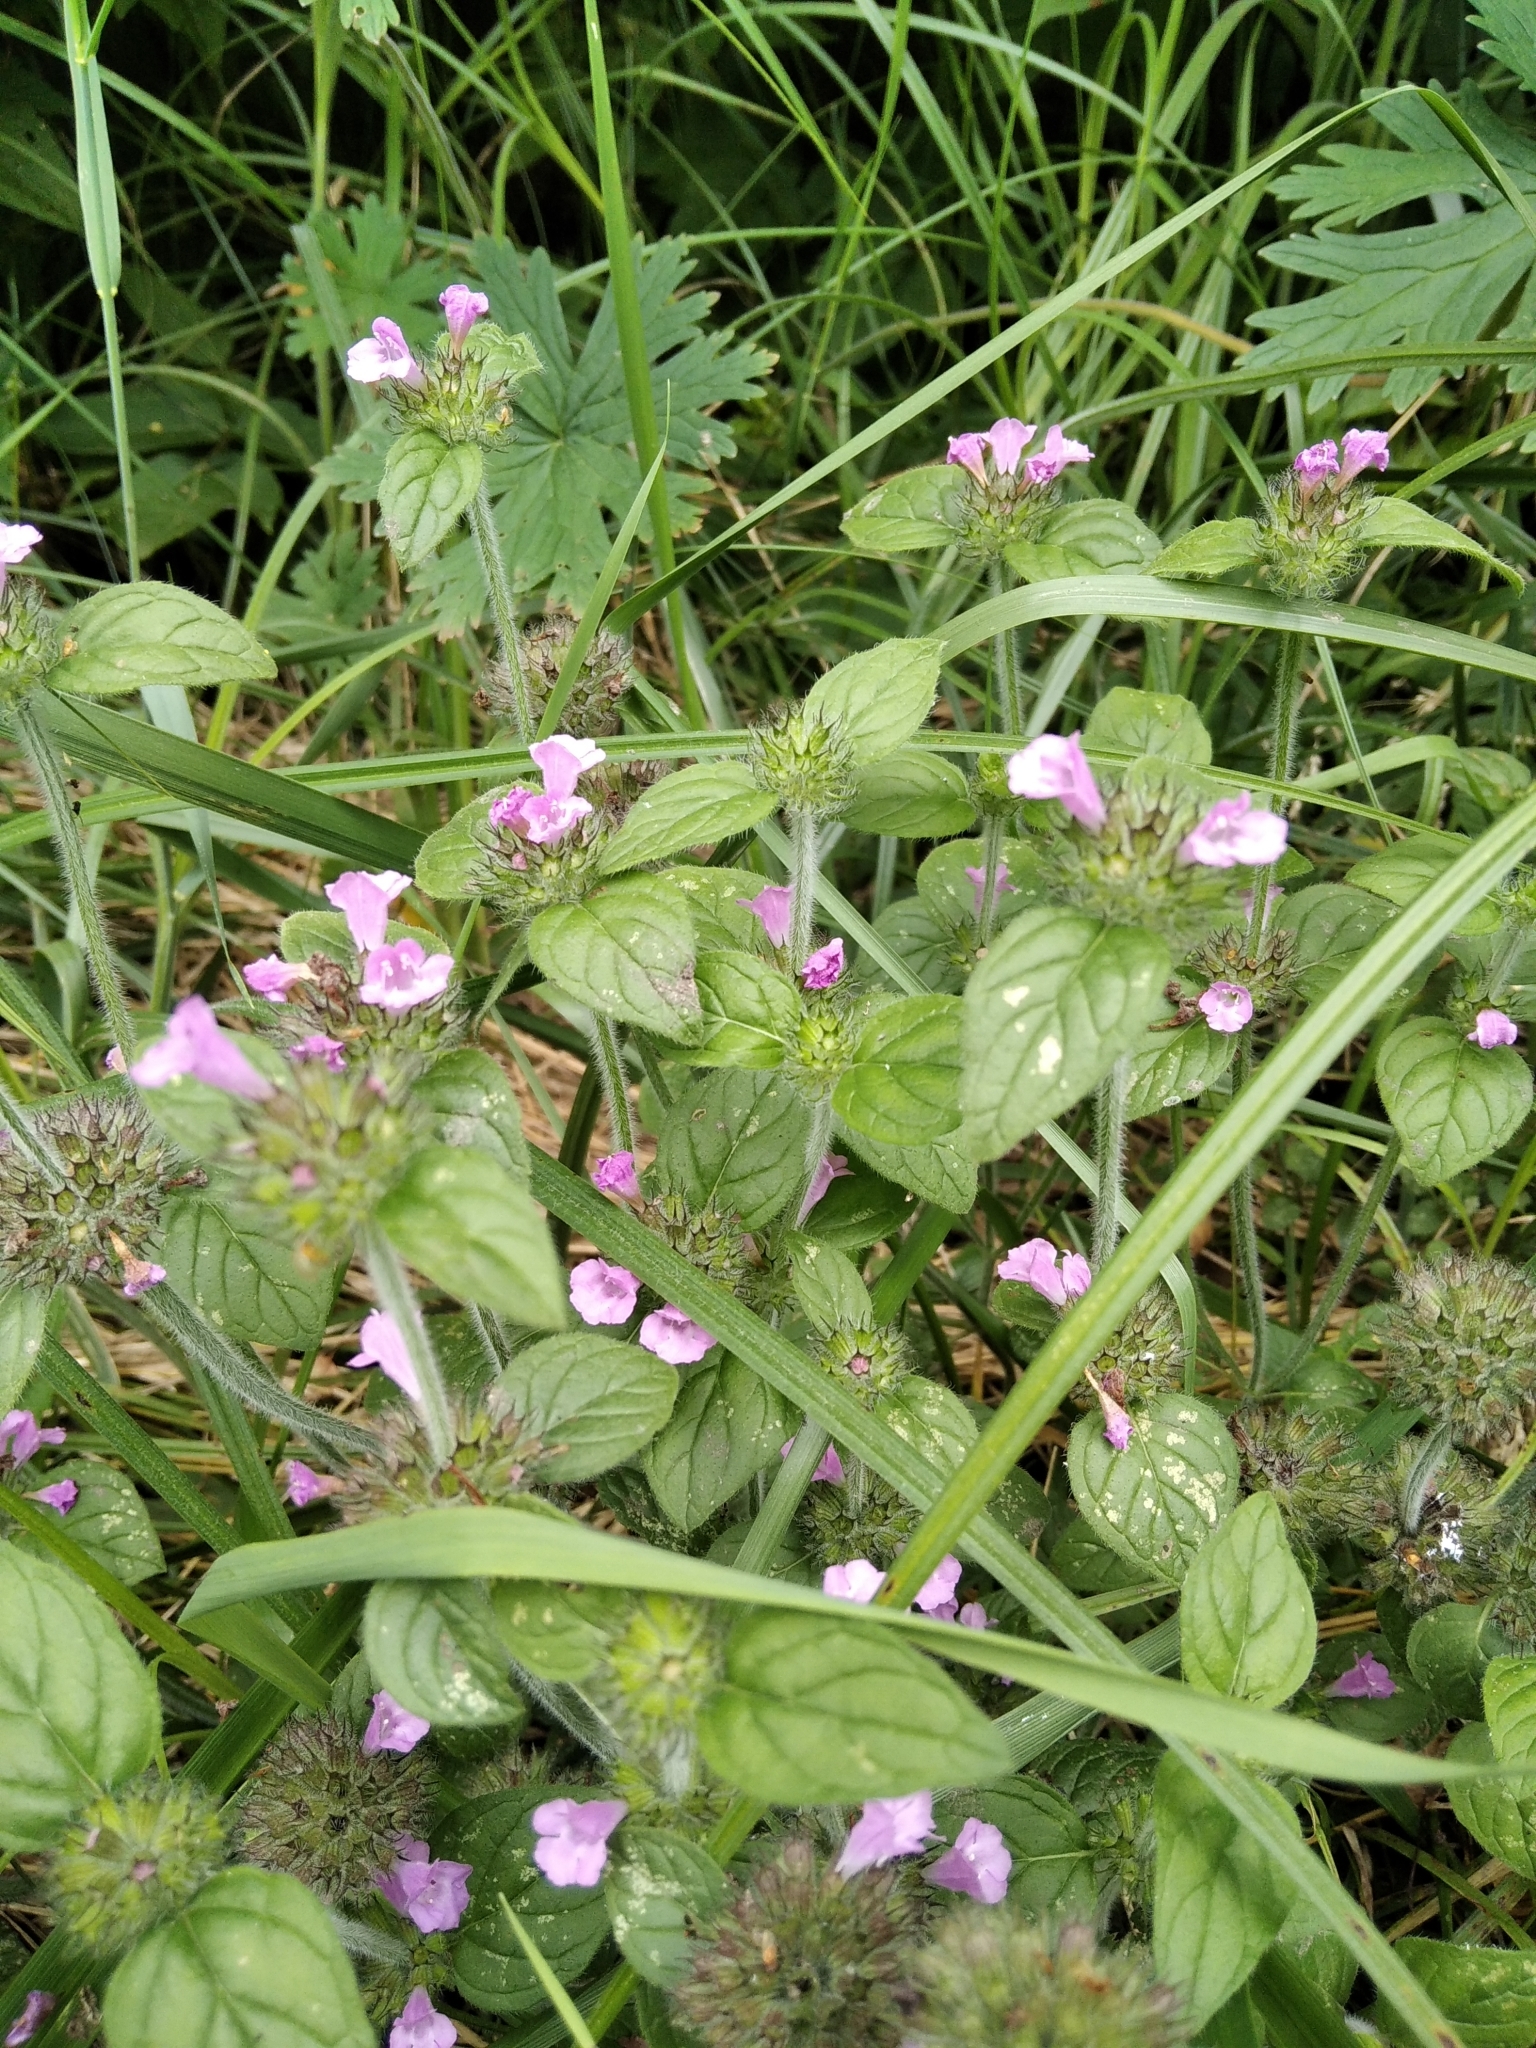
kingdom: Plantae
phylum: Tracheophyta
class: Magnoliopsida
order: Lamiales
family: Lamiaceae
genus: Clinopodium
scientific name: Clinopodium vulgare
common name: Wild basil
